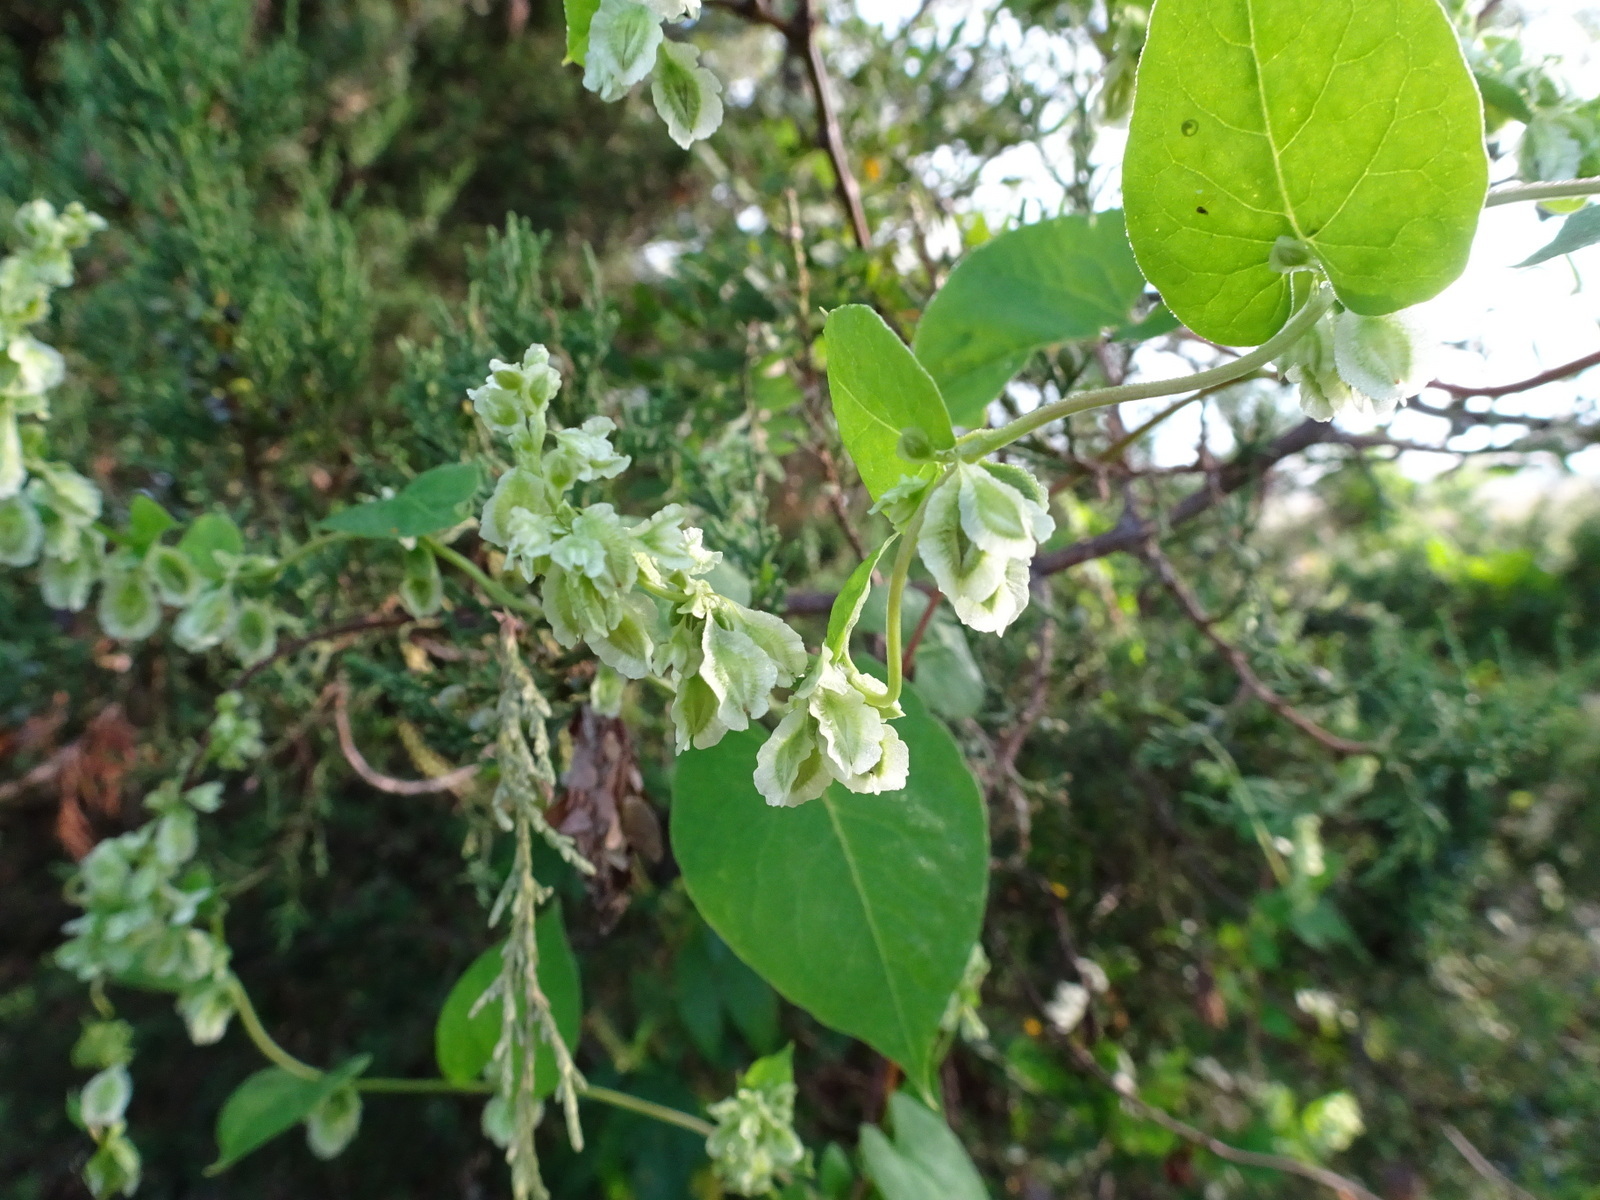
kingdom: Plantae
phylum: Tracheophyta
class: Magnoliopsida
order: Caryophyllales
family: Polygonaceae
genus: Fallopia
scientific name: Fallopia scandens
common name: Climbing false buckwheat
